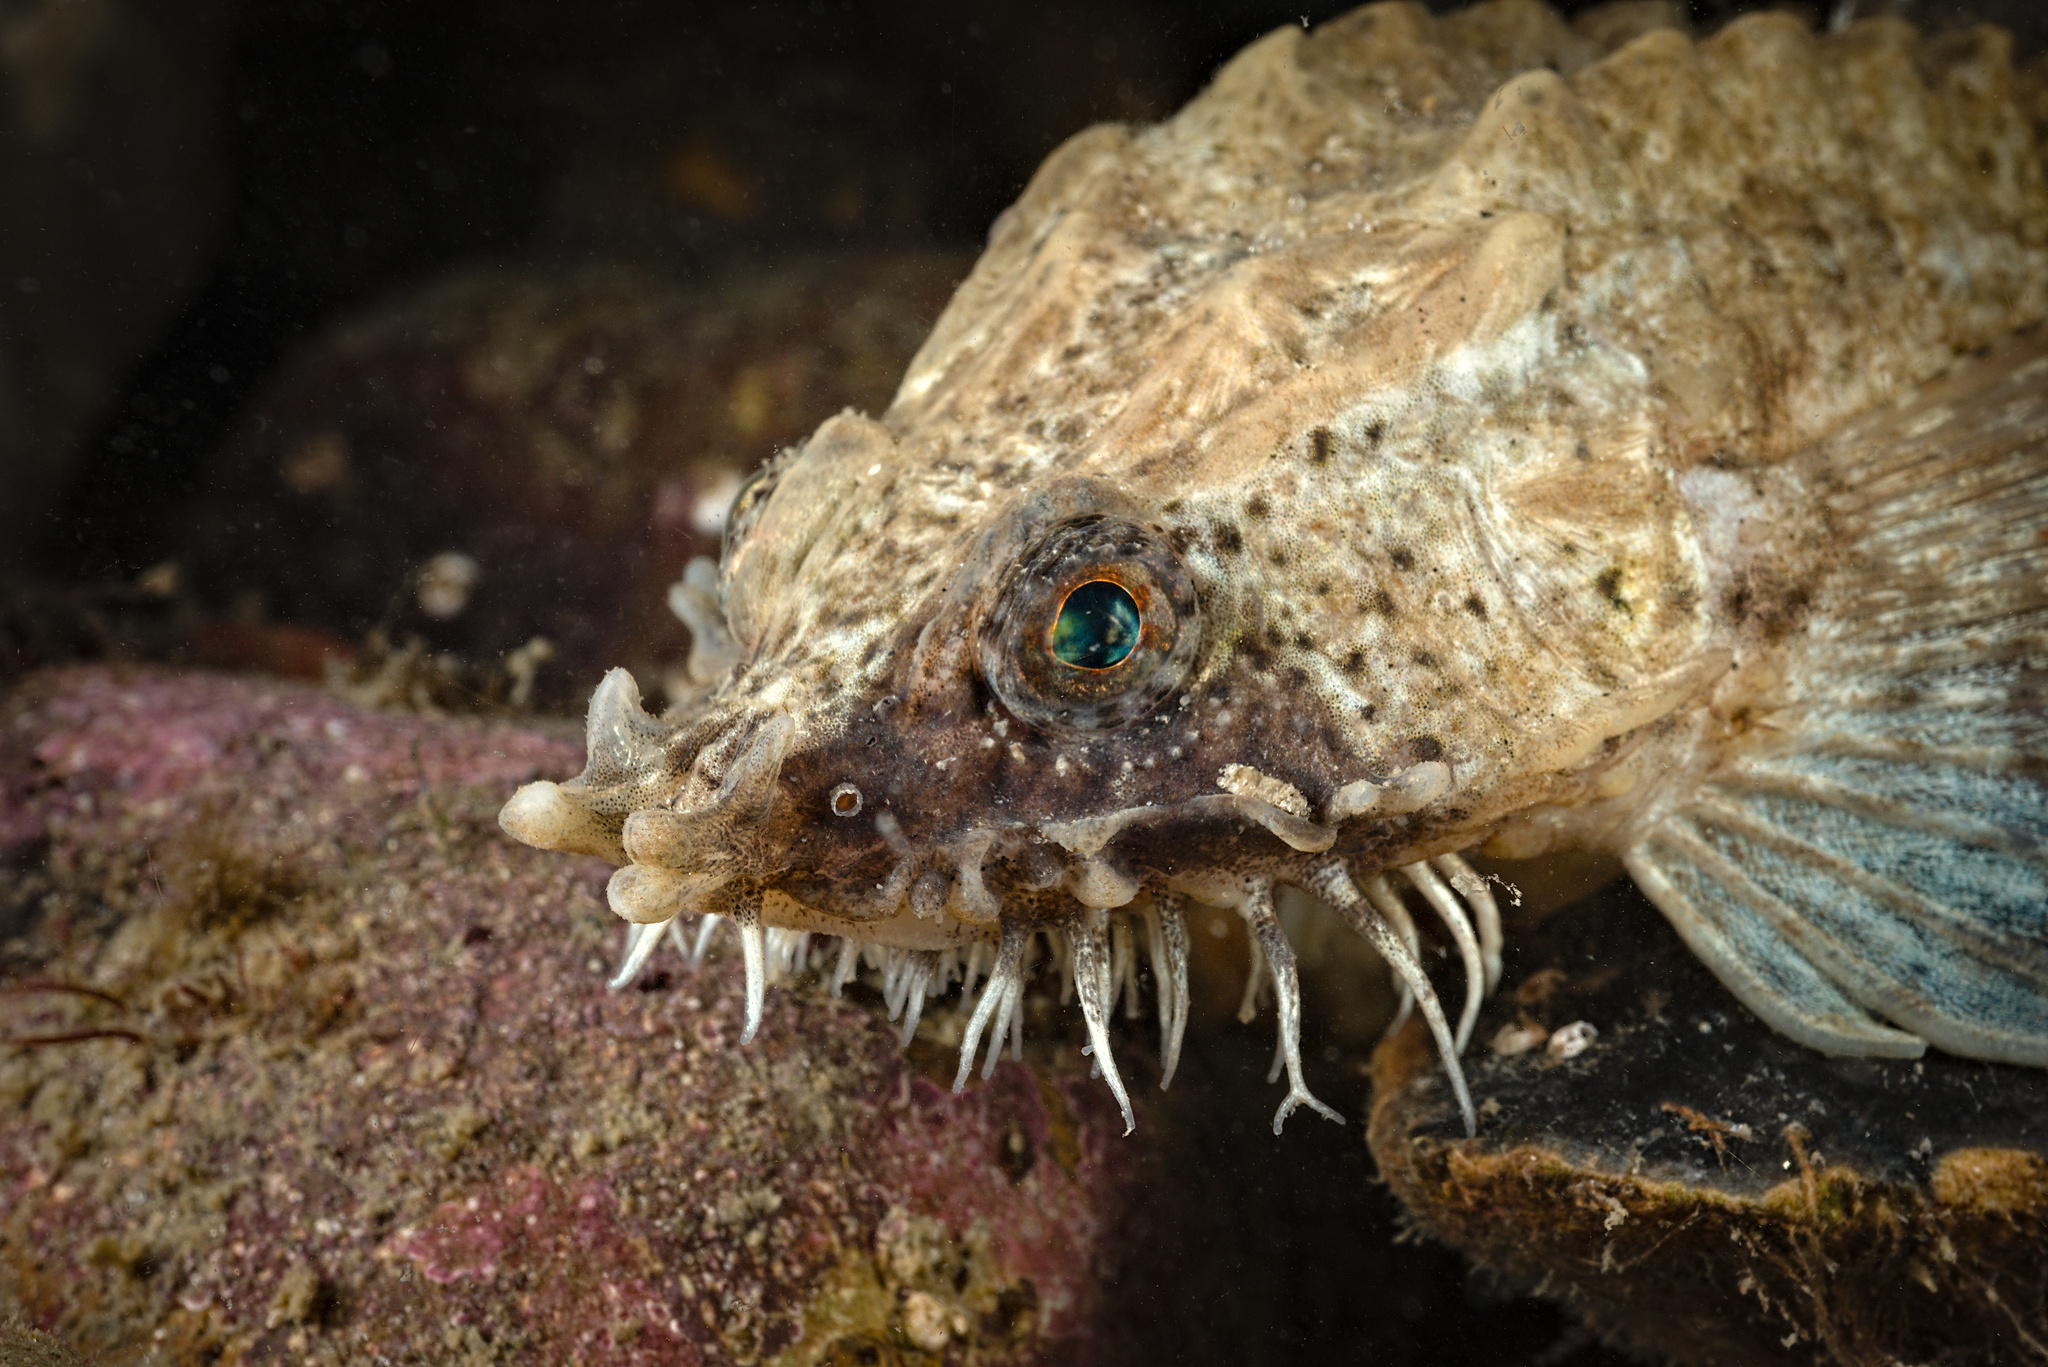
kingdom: Animalia
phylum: Chordata
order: Scorpaeniformes
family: Agonidae
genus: Agonus
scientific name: Agonus cataphractus
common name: Pogge
